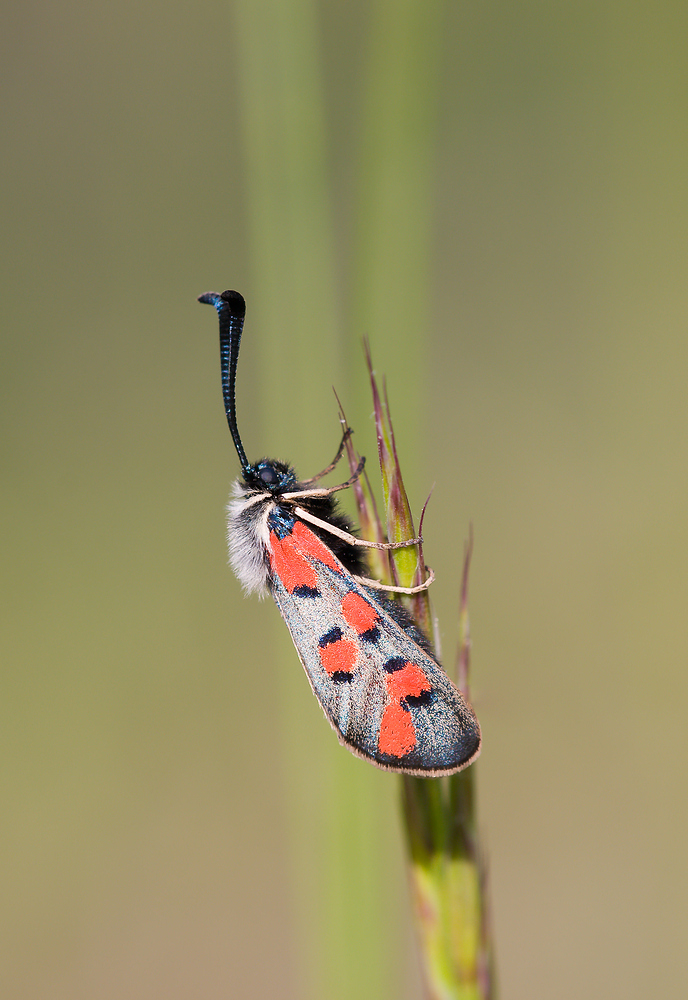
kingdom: Animalia
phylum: Arthropoda
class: Insecta
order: Lepidoptera
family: Zygaenidae
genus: Zygaena
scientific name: Zygaena rhadamanthus
